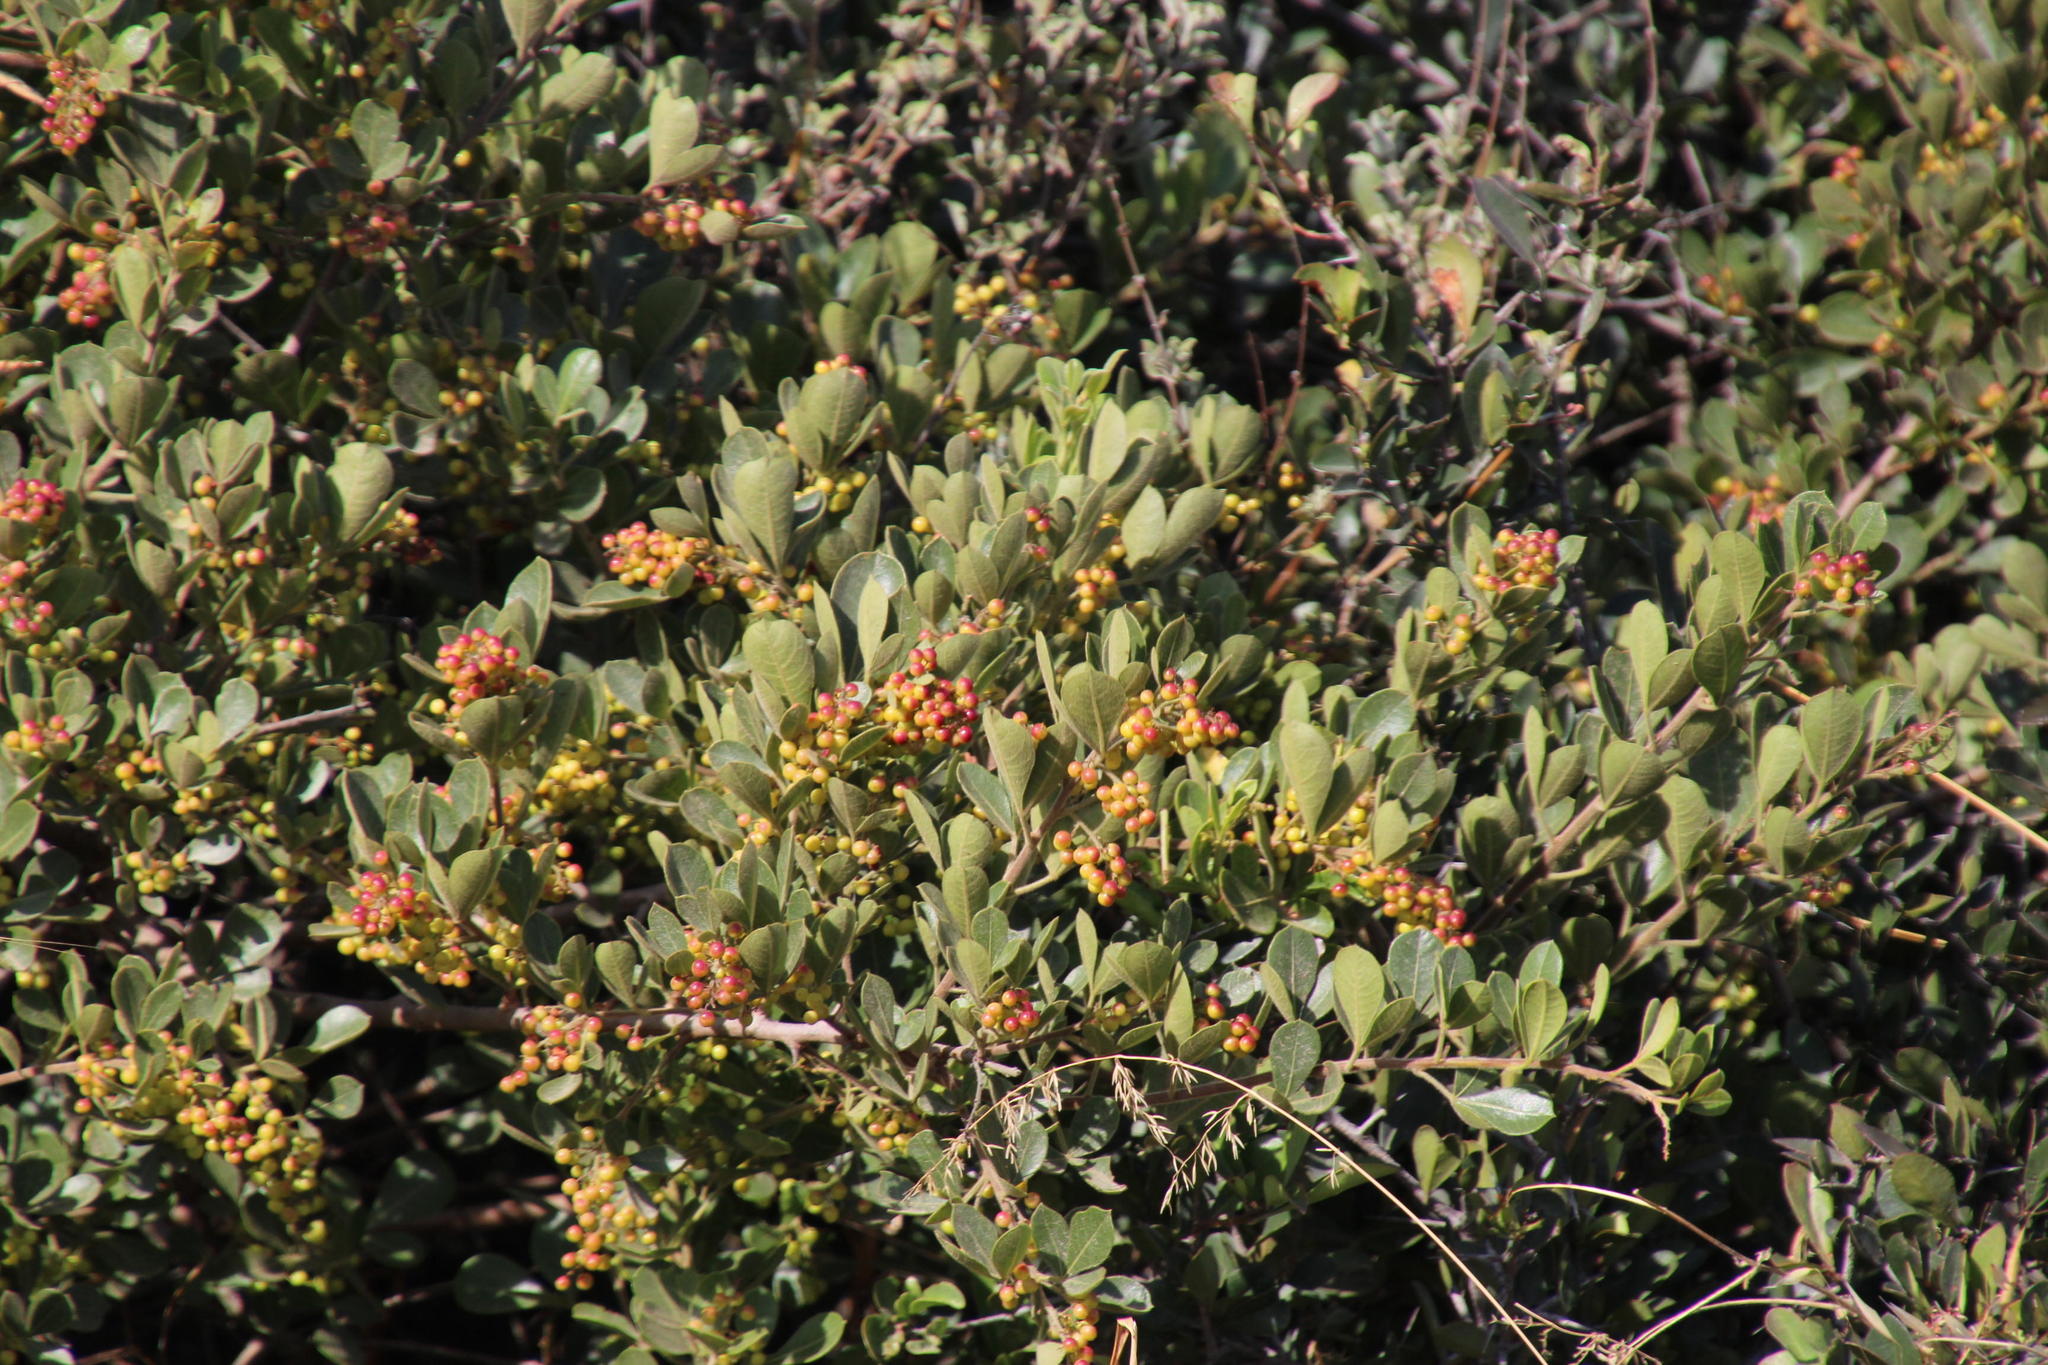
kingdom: Plantae
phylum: Tracheophyta
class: Magnoliopsida
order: Sapindales
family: Anacardiaceae
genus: Searsia
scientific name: Searsia crenata
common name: Crowberry
